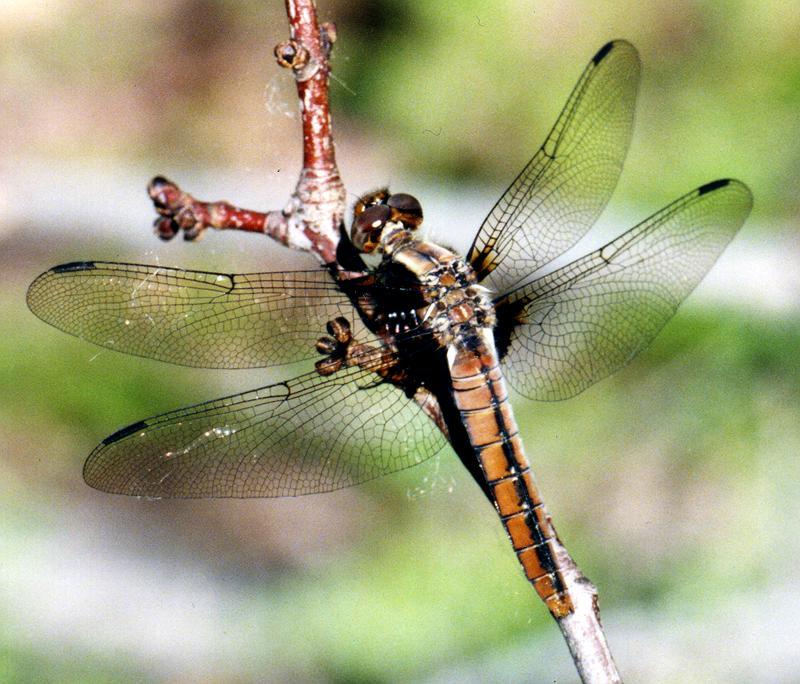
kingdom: Animalia
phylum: Arthropoda
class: Insecta
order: Odonata
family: Libellulidae
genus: Ladona
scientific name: Ladona julia
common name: Chalk-fronted corporal
